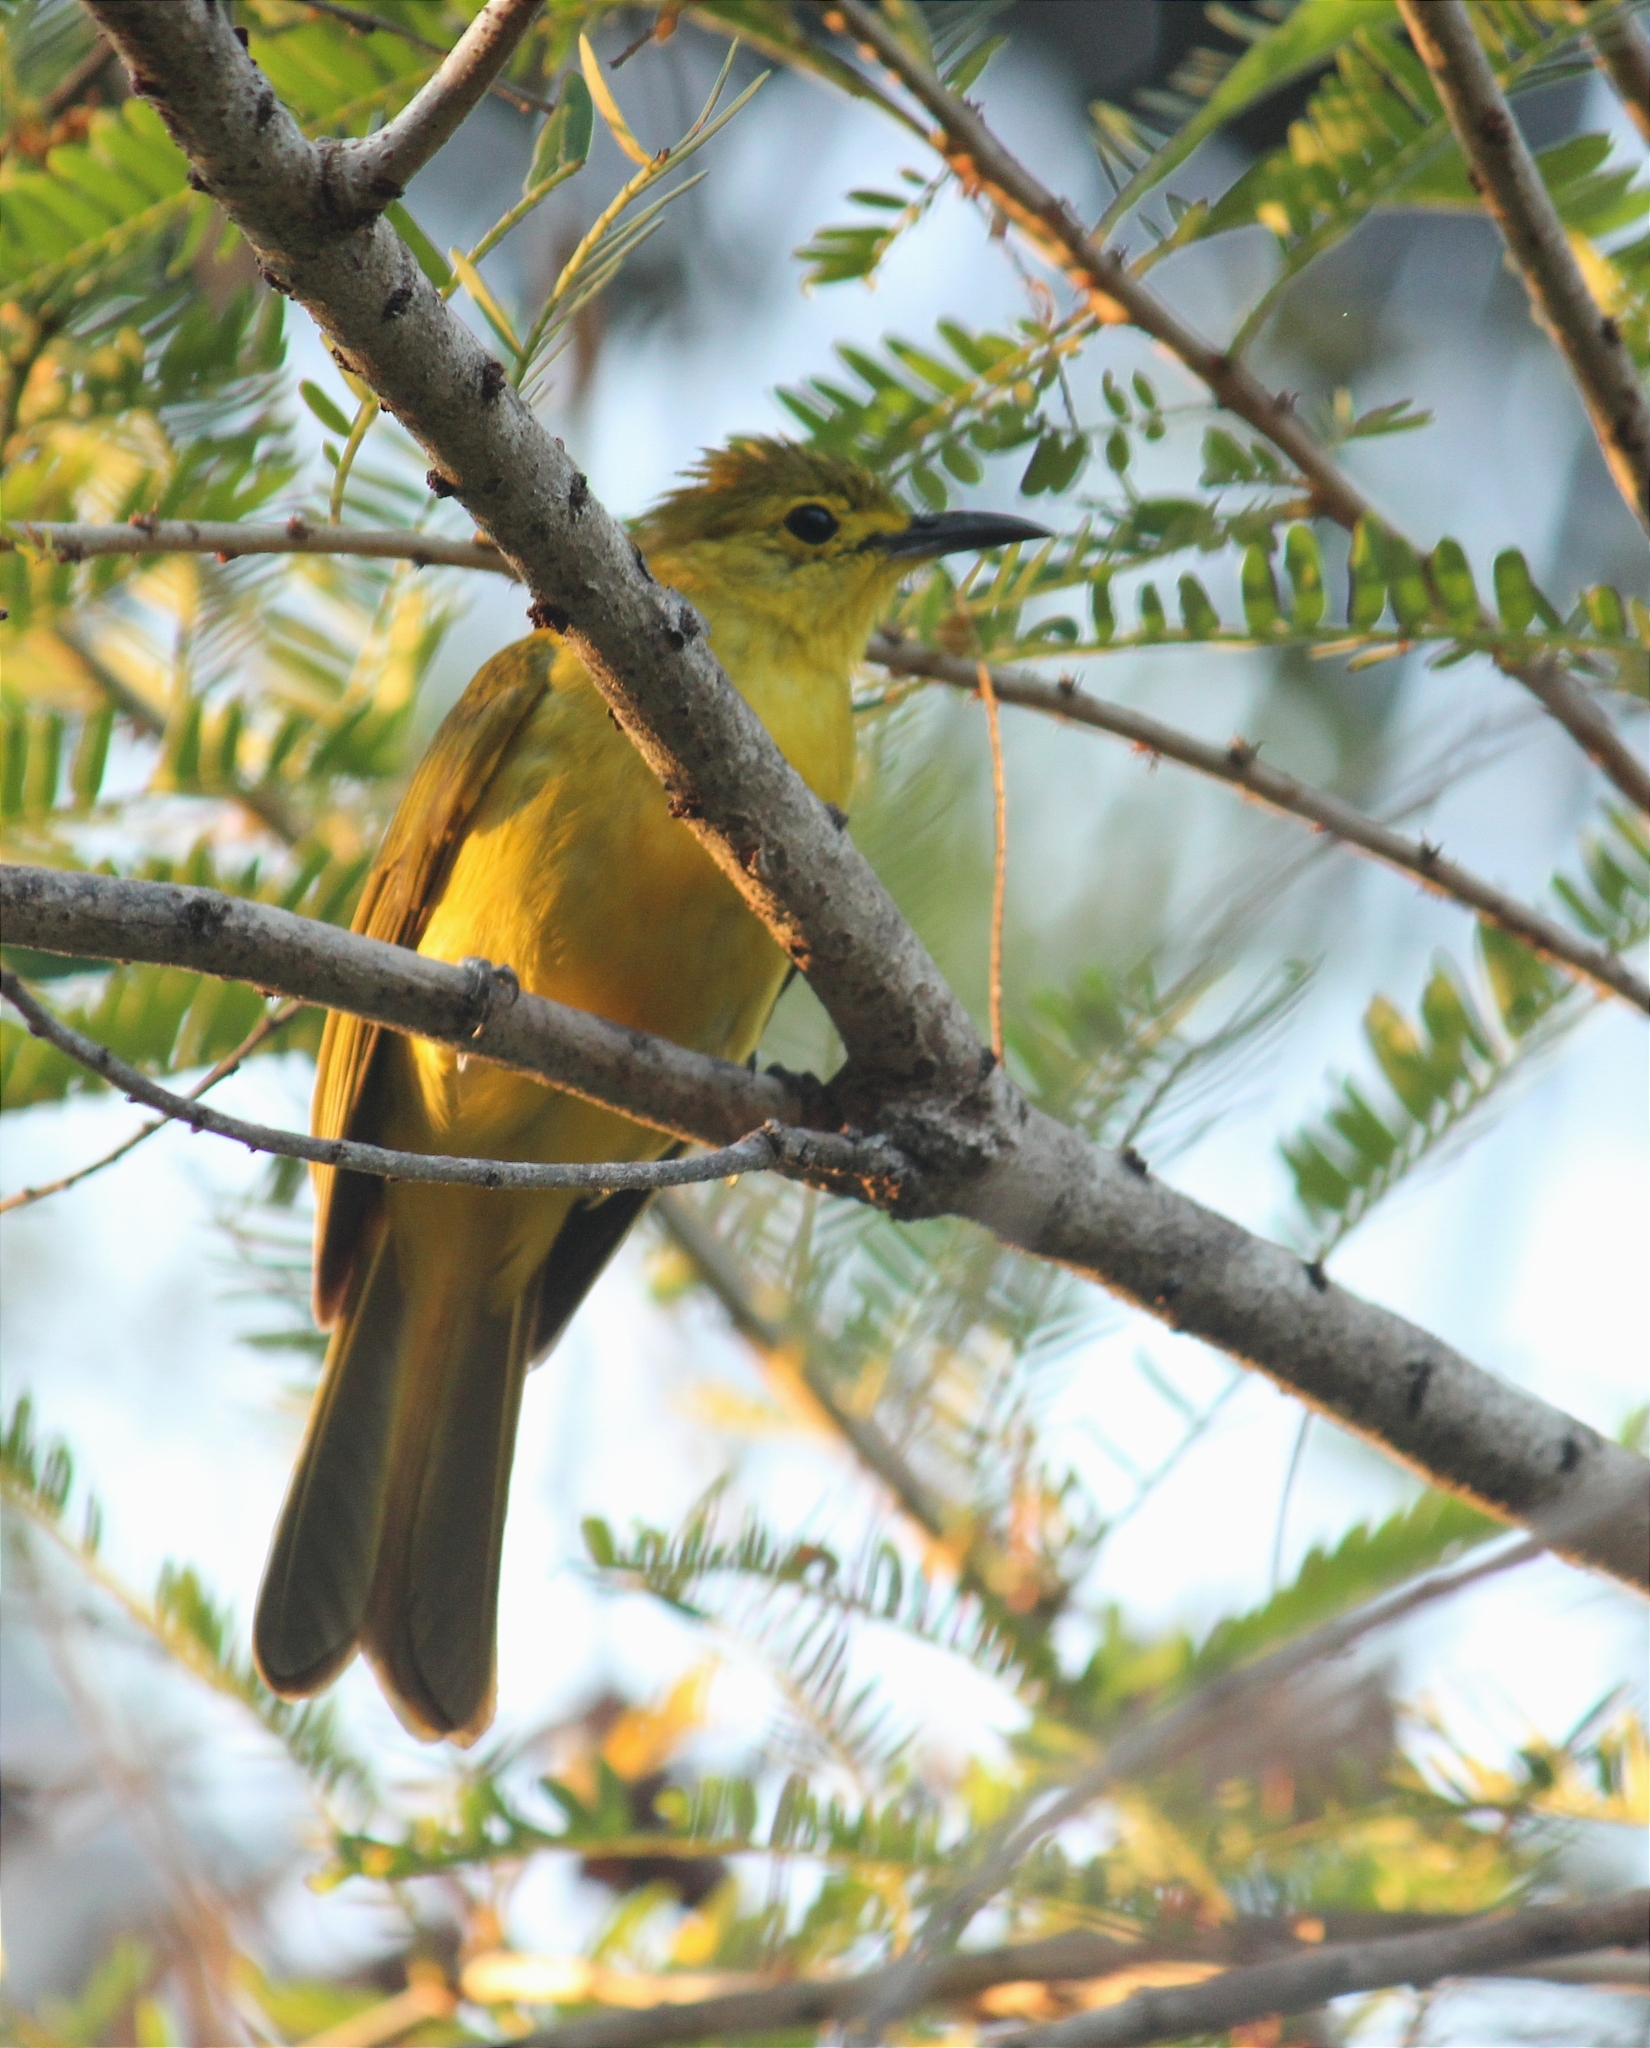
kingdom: Animalia
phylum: Chordata
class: Aves
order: Passeriformes
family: Pycnonotidae
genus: Acritillas
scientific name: Acritillas indica
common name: Yellow-browed bulbul
